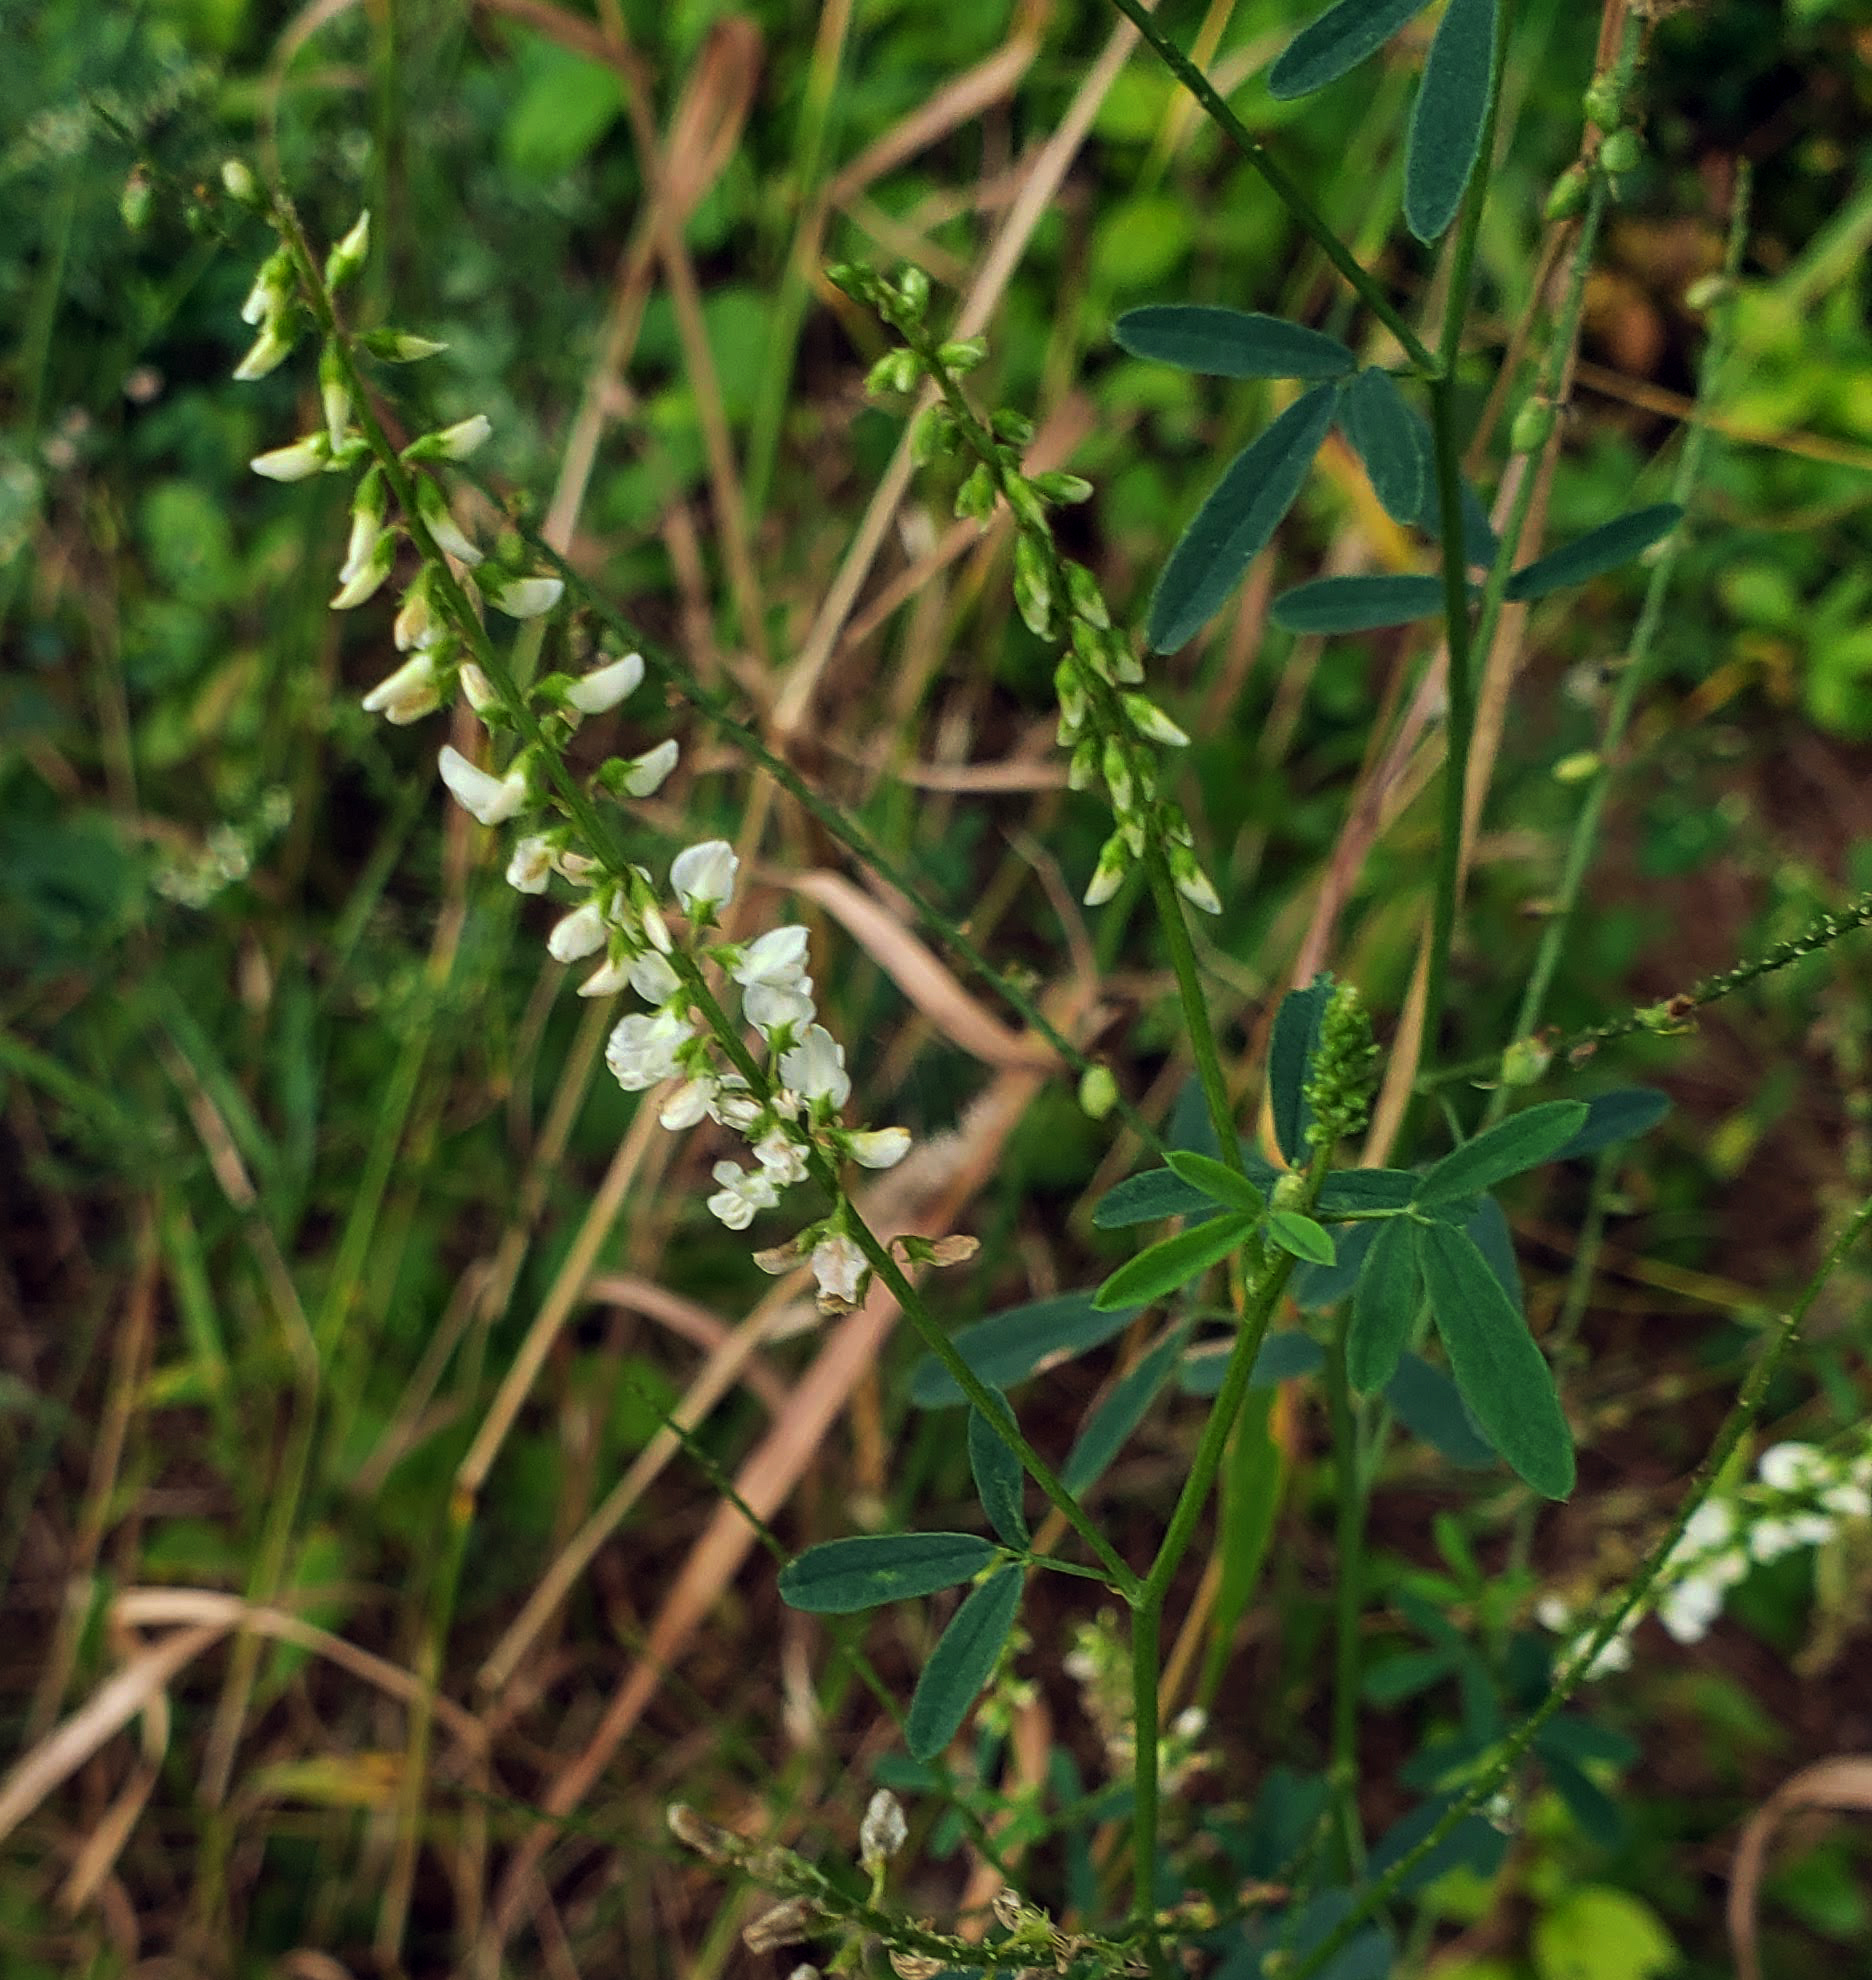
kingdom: Plantae
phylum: Tracheophyta
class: Magnoliopsida
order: Fabales
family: Fabaceae
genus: Melilotus
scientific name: Melilotus albus
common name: White melilot
